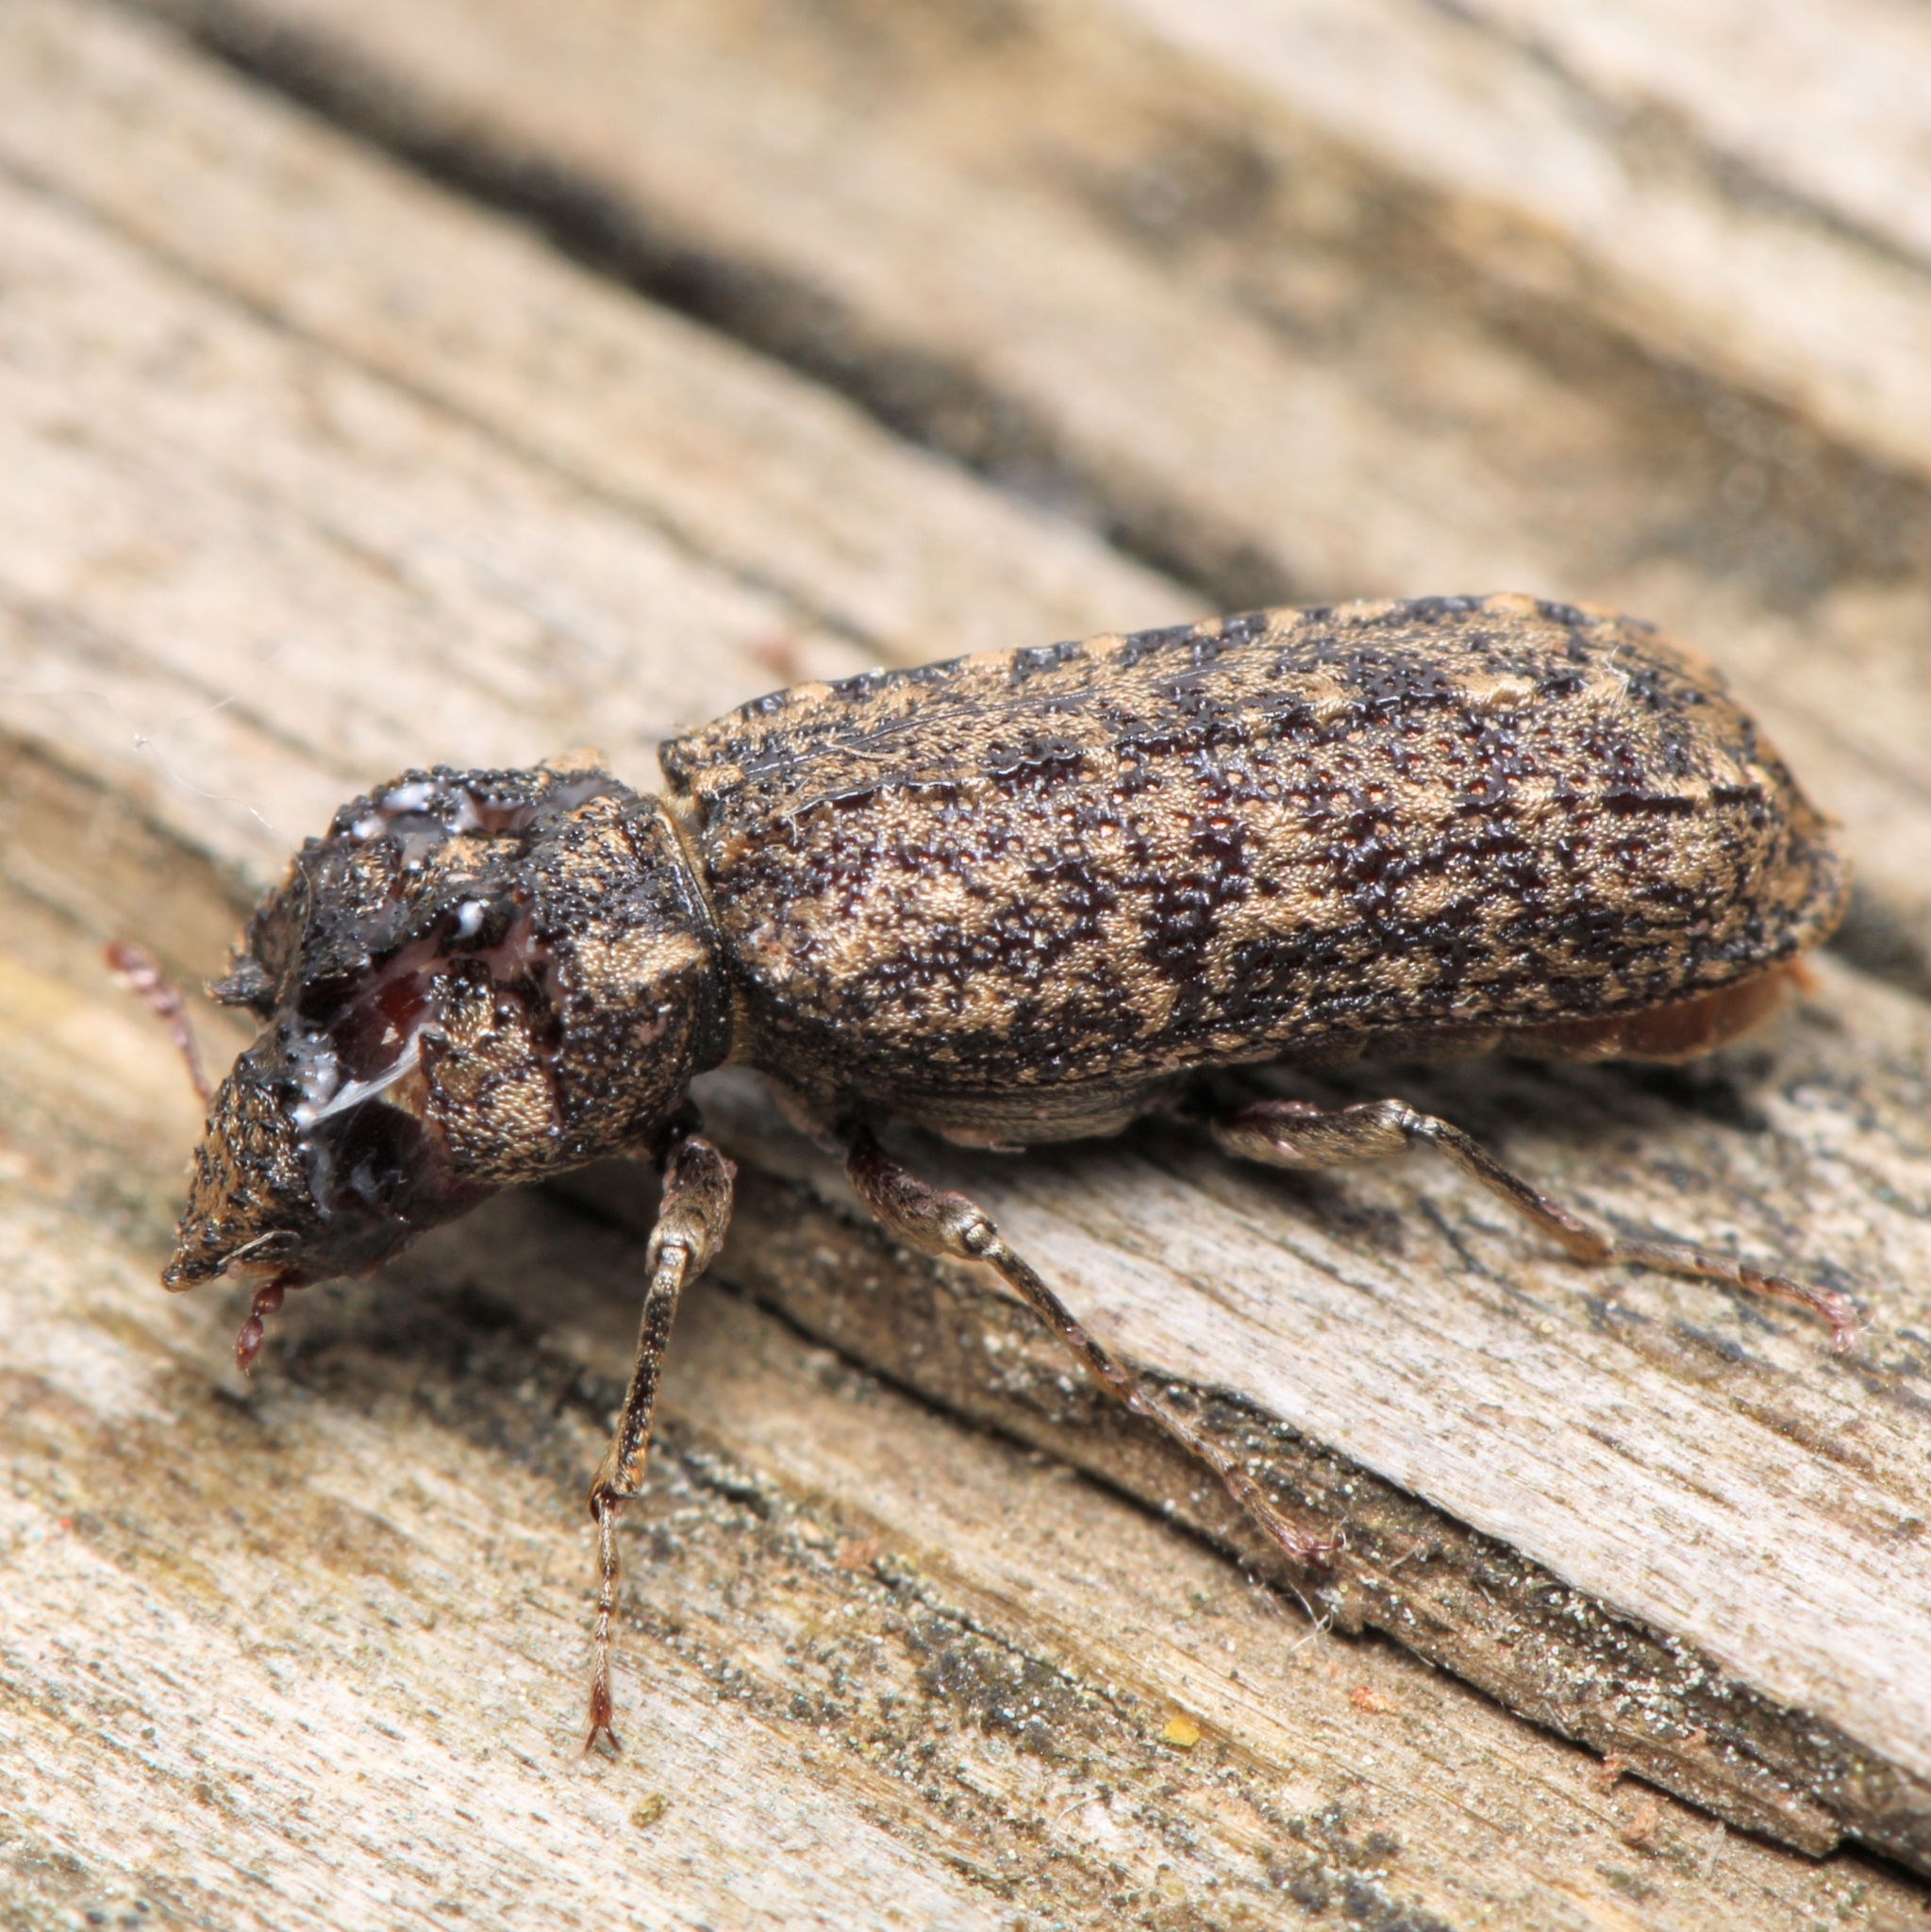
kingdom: Animalia
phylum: Arthropoda
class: Insecta
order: Coleoptera
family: Bostrichidae
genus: Lichenophanes
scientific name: Lichenophanes bicornis
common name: Two-horned powder-post beetle
